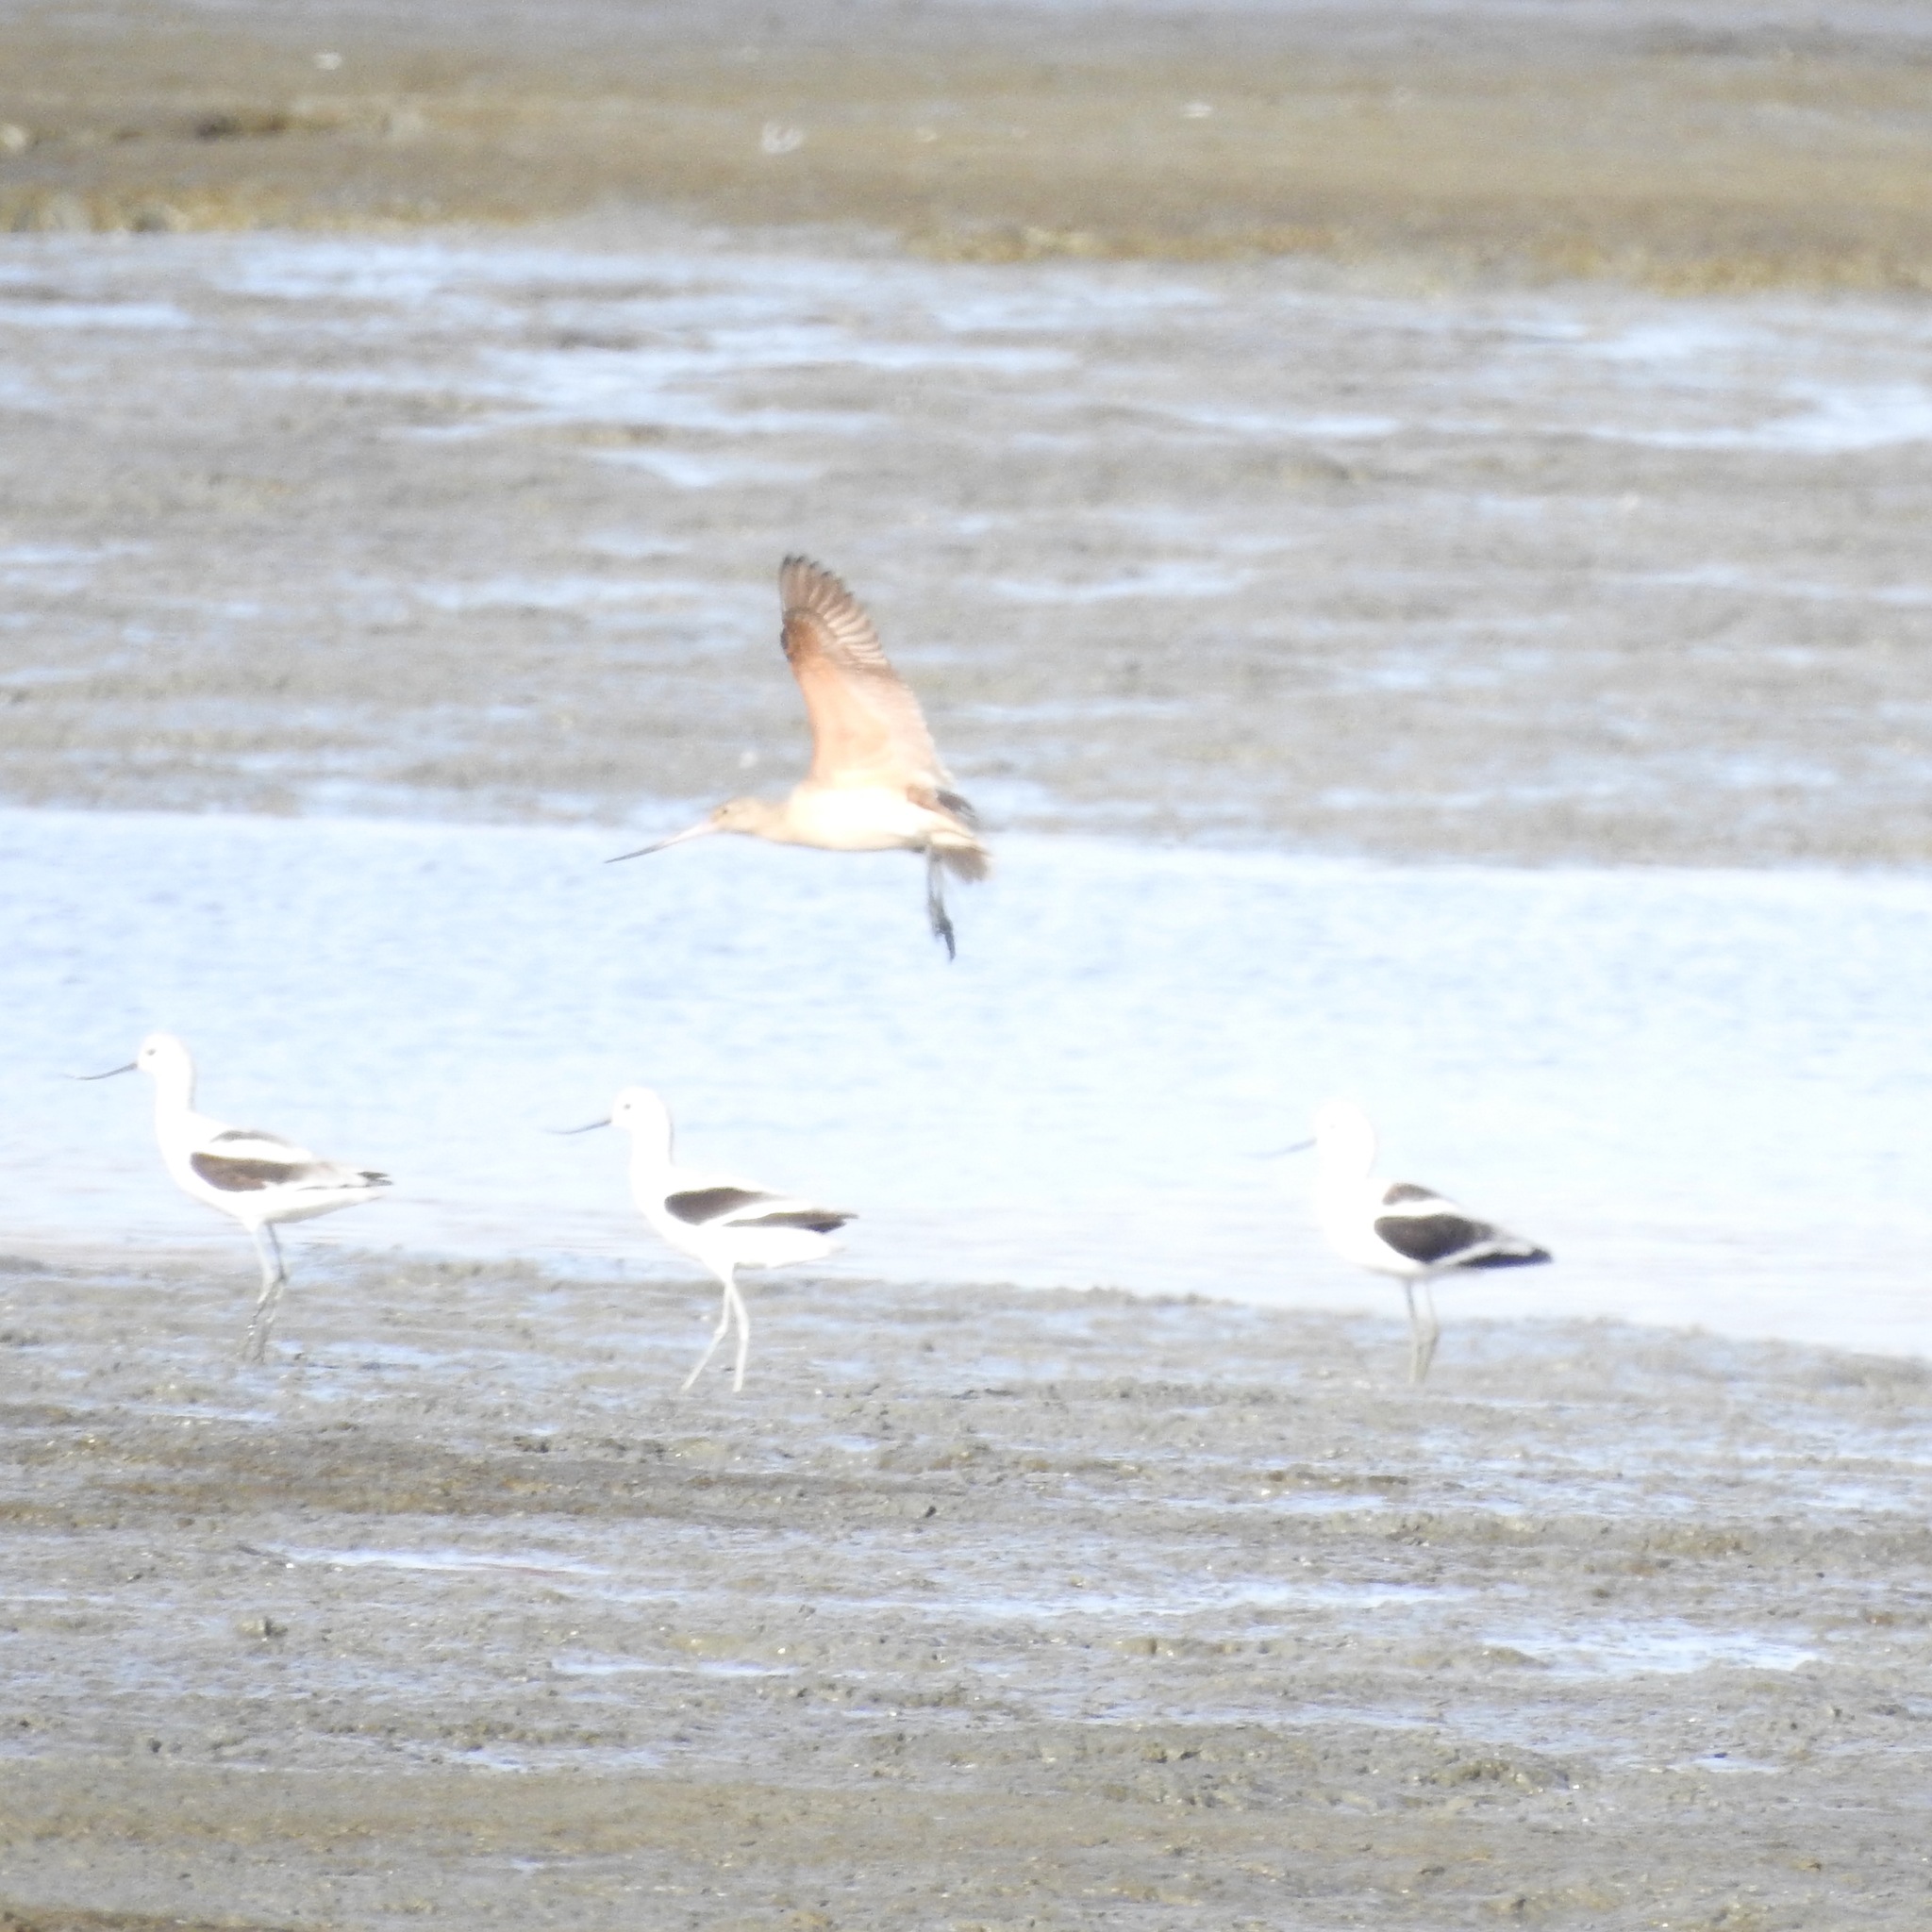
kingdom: Animalia
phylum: Chordata
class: Aves
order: Charadriiformes
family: Scolopacidae
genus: Limosa
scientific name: Limosa fedoa
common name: Marbled godwit
